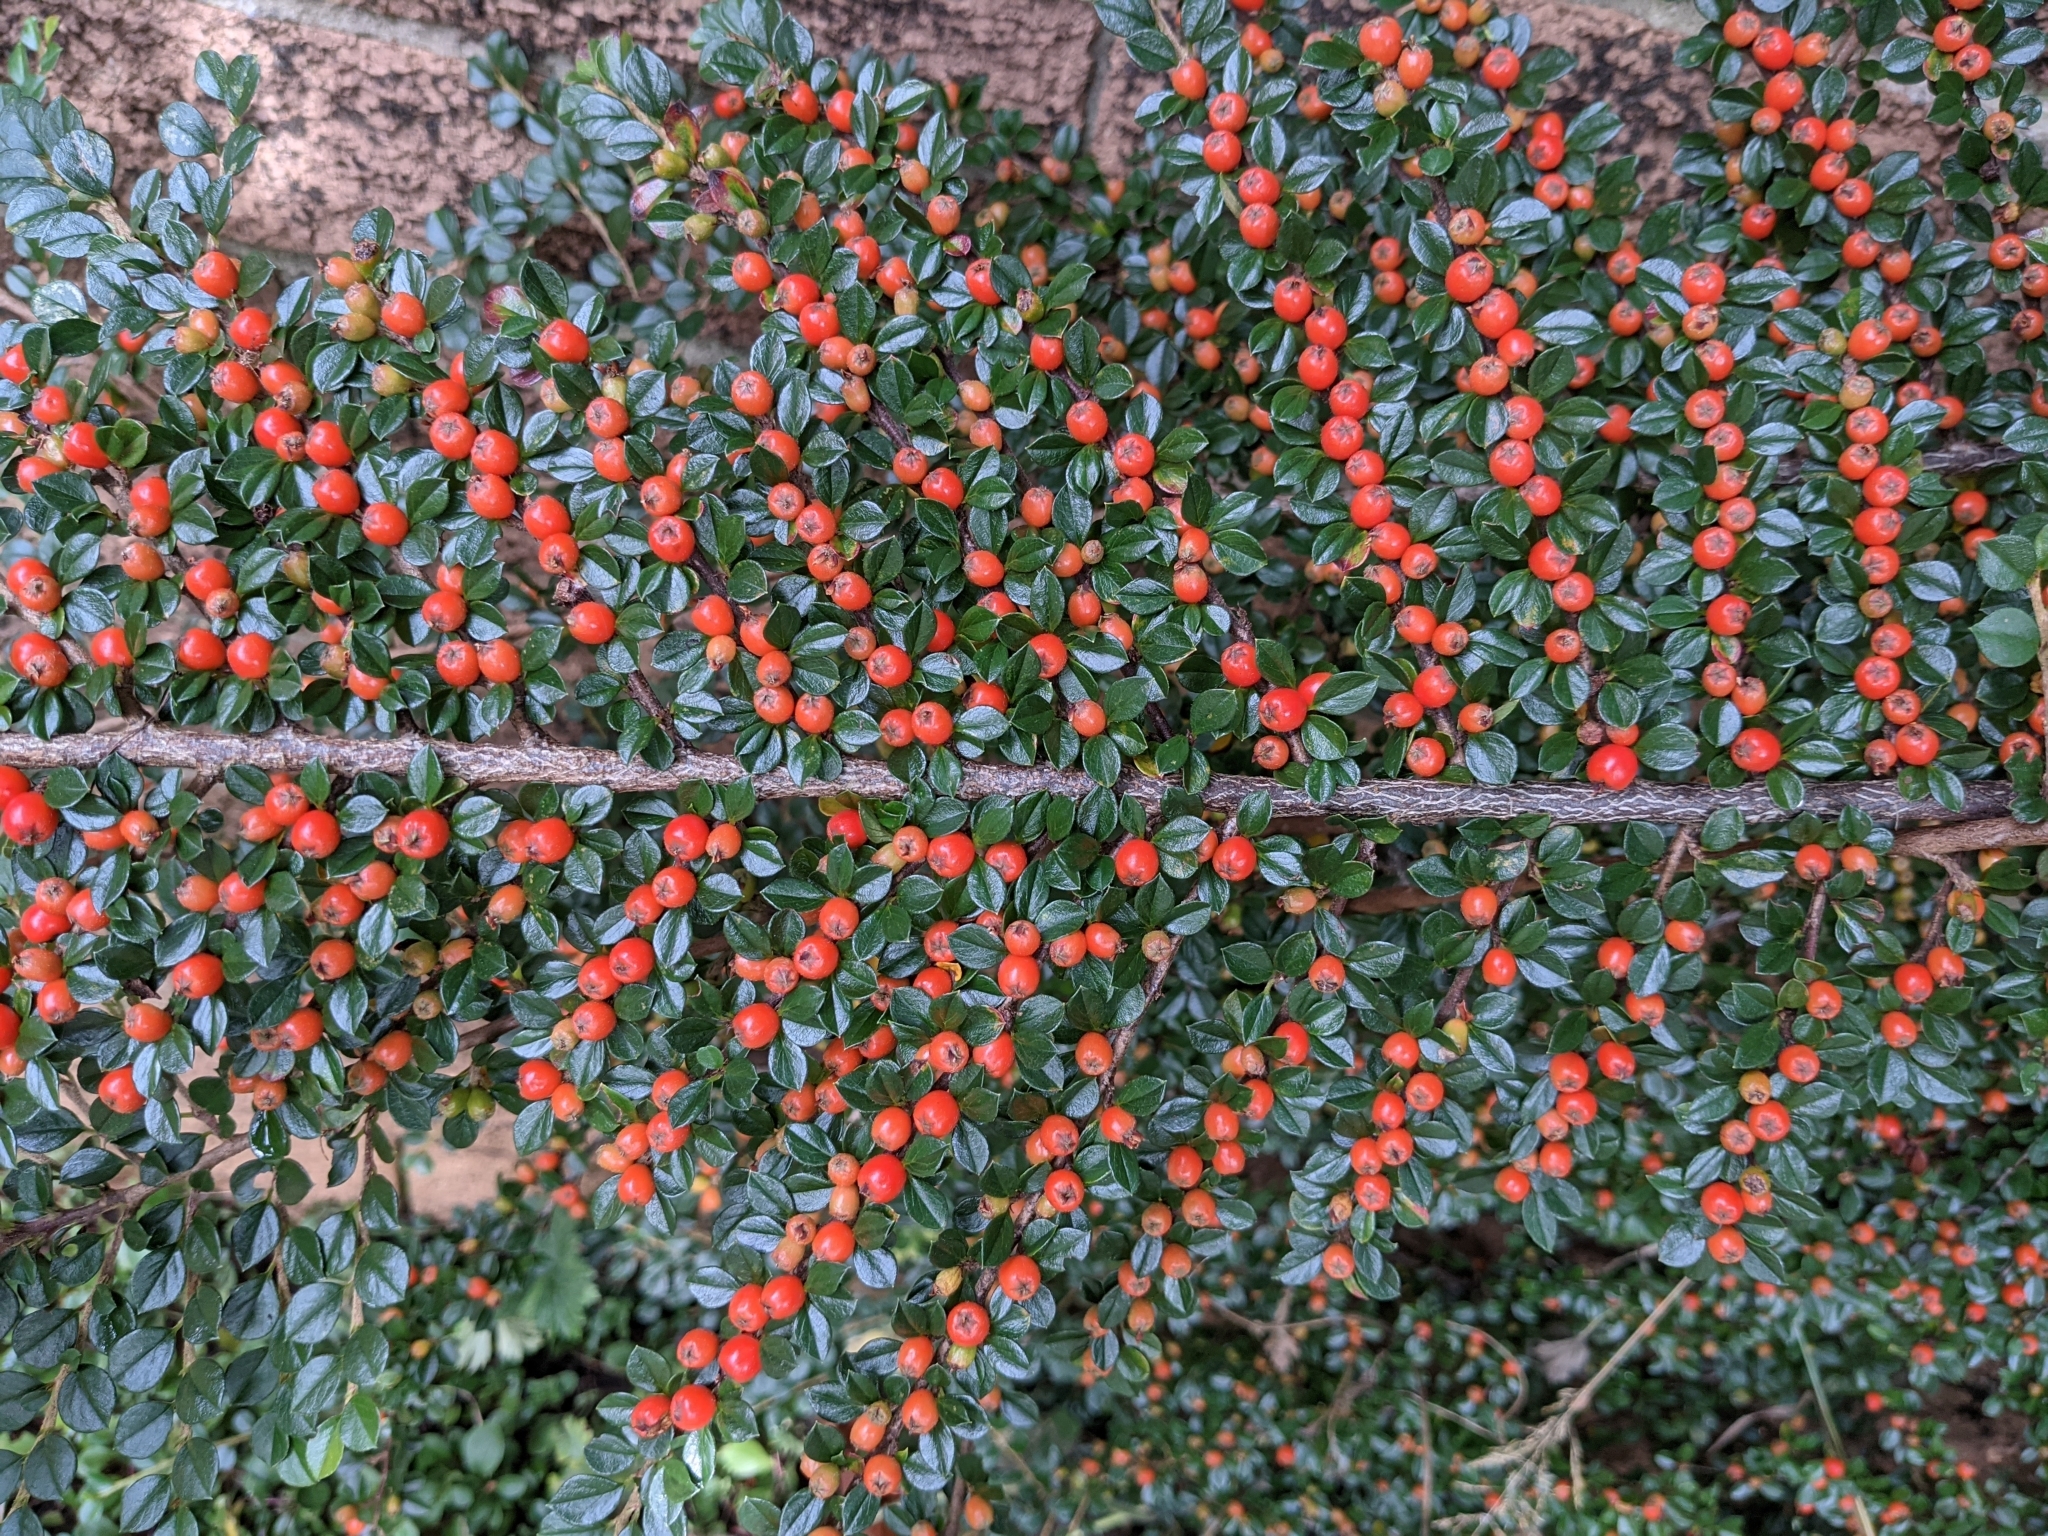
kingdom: Plantae
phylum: Tracheophyta
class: Magnoliopsida
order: Rosales
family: Rosaceae
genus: Cotoneaster
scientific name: Cotoneaster horizontalis
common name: Wall cotoneaster
